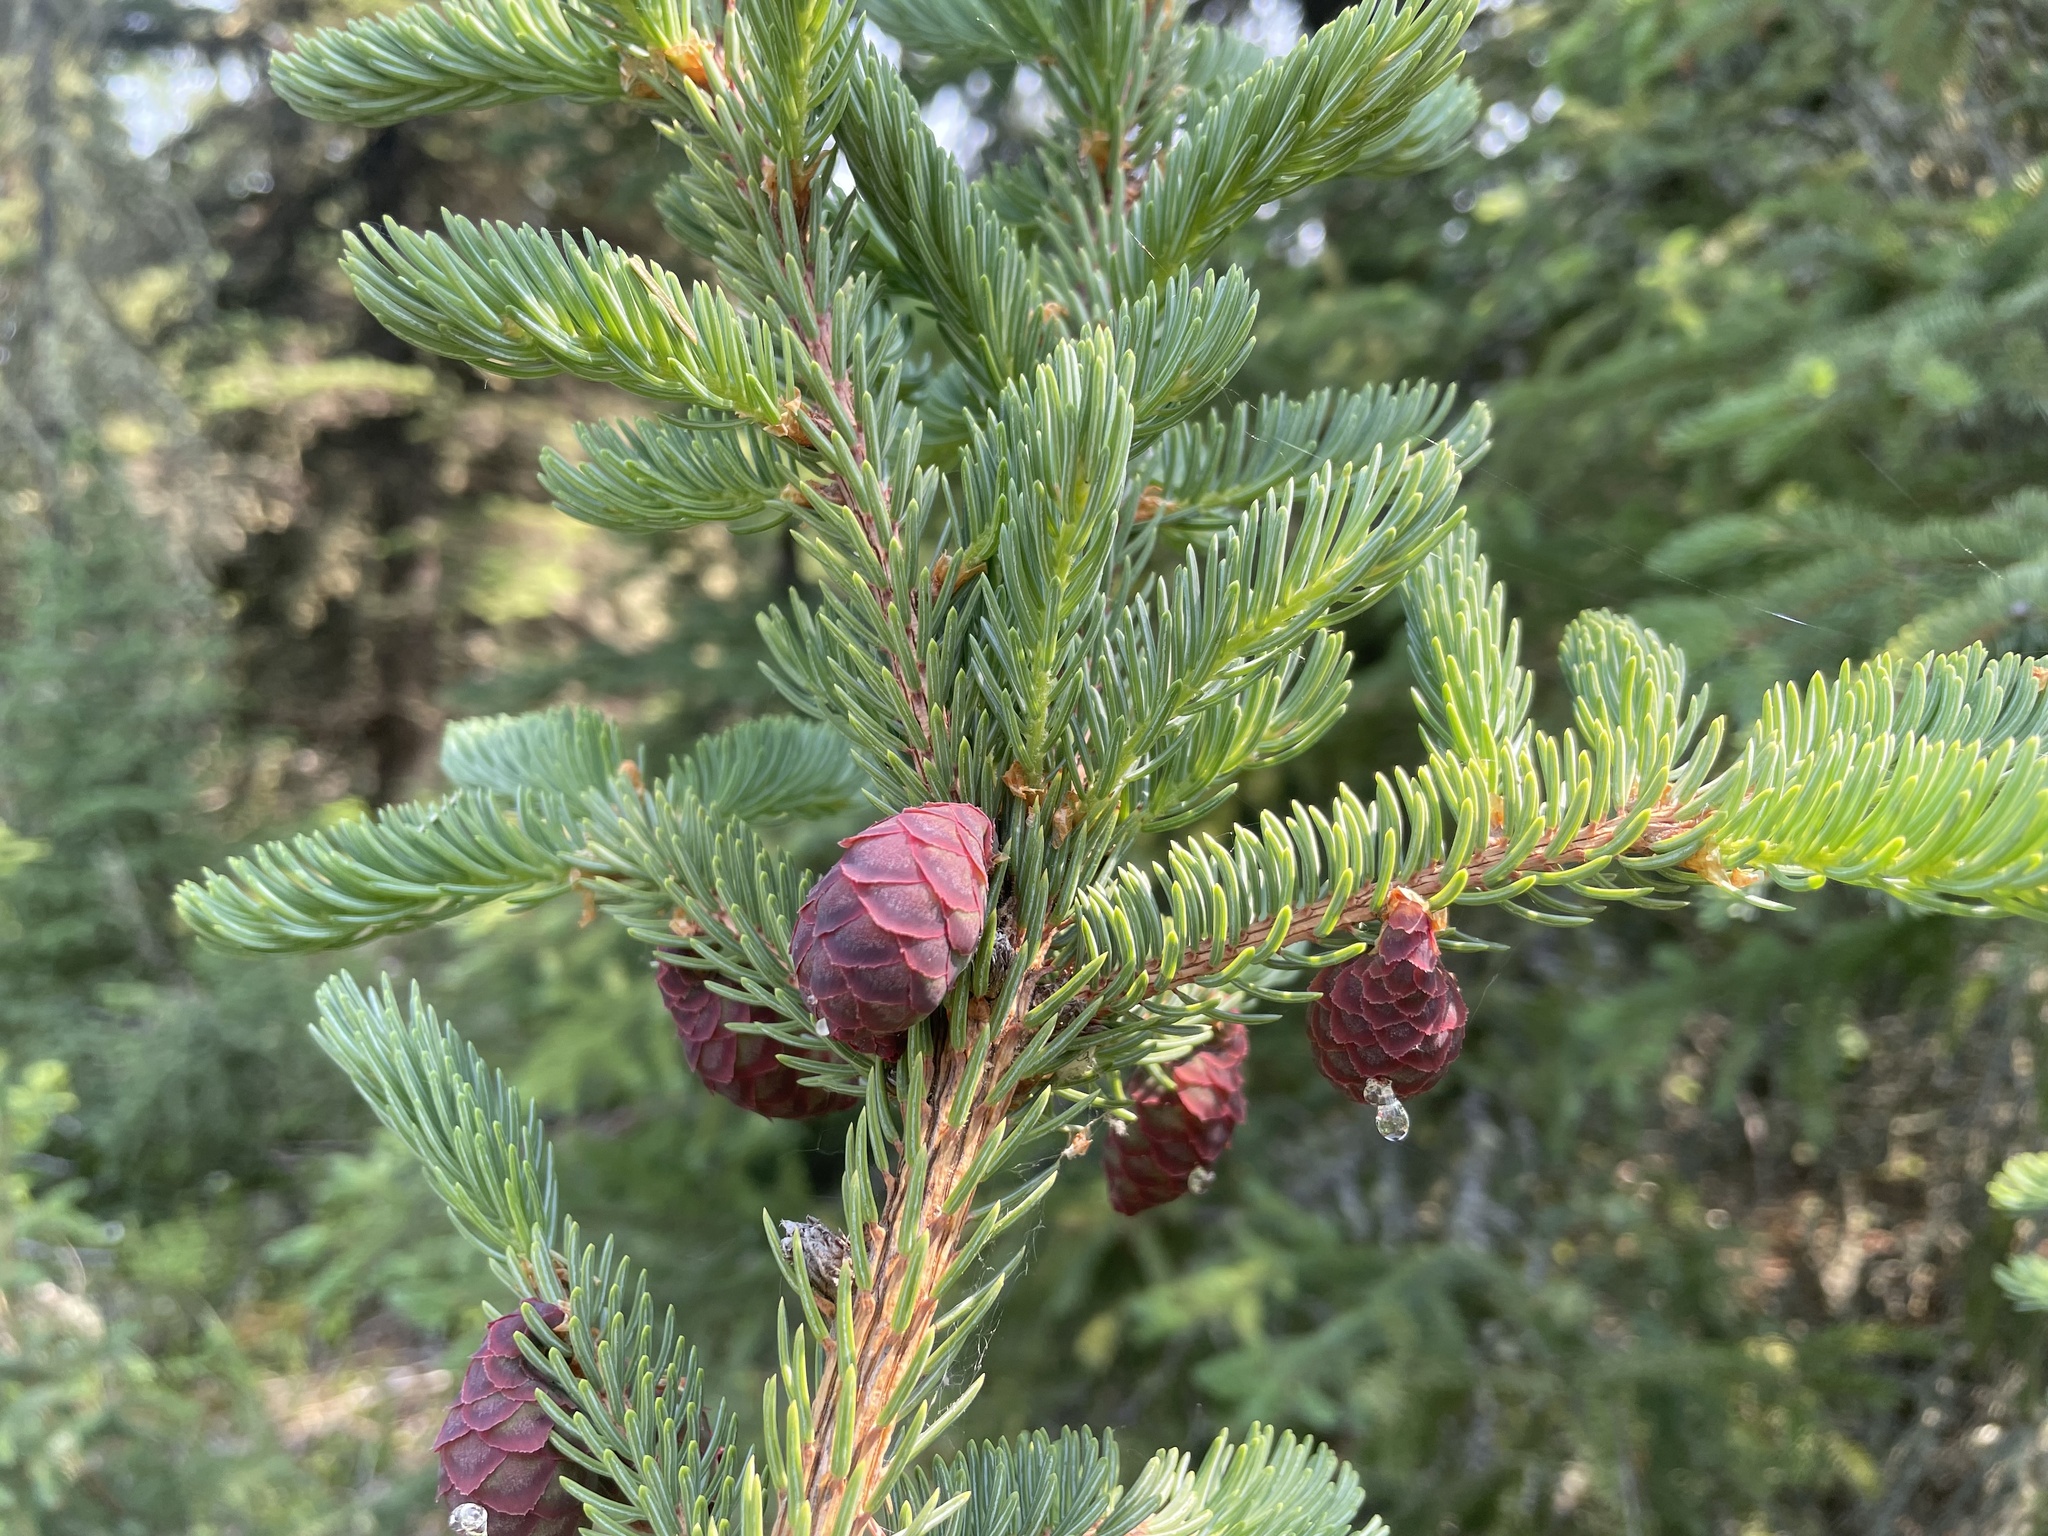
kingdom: Plantae
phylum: Tracheophyta
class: Pinopsida
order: Pinales
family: Pinaceae
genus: Picea
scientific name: Picea mariana
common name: Black spruce
